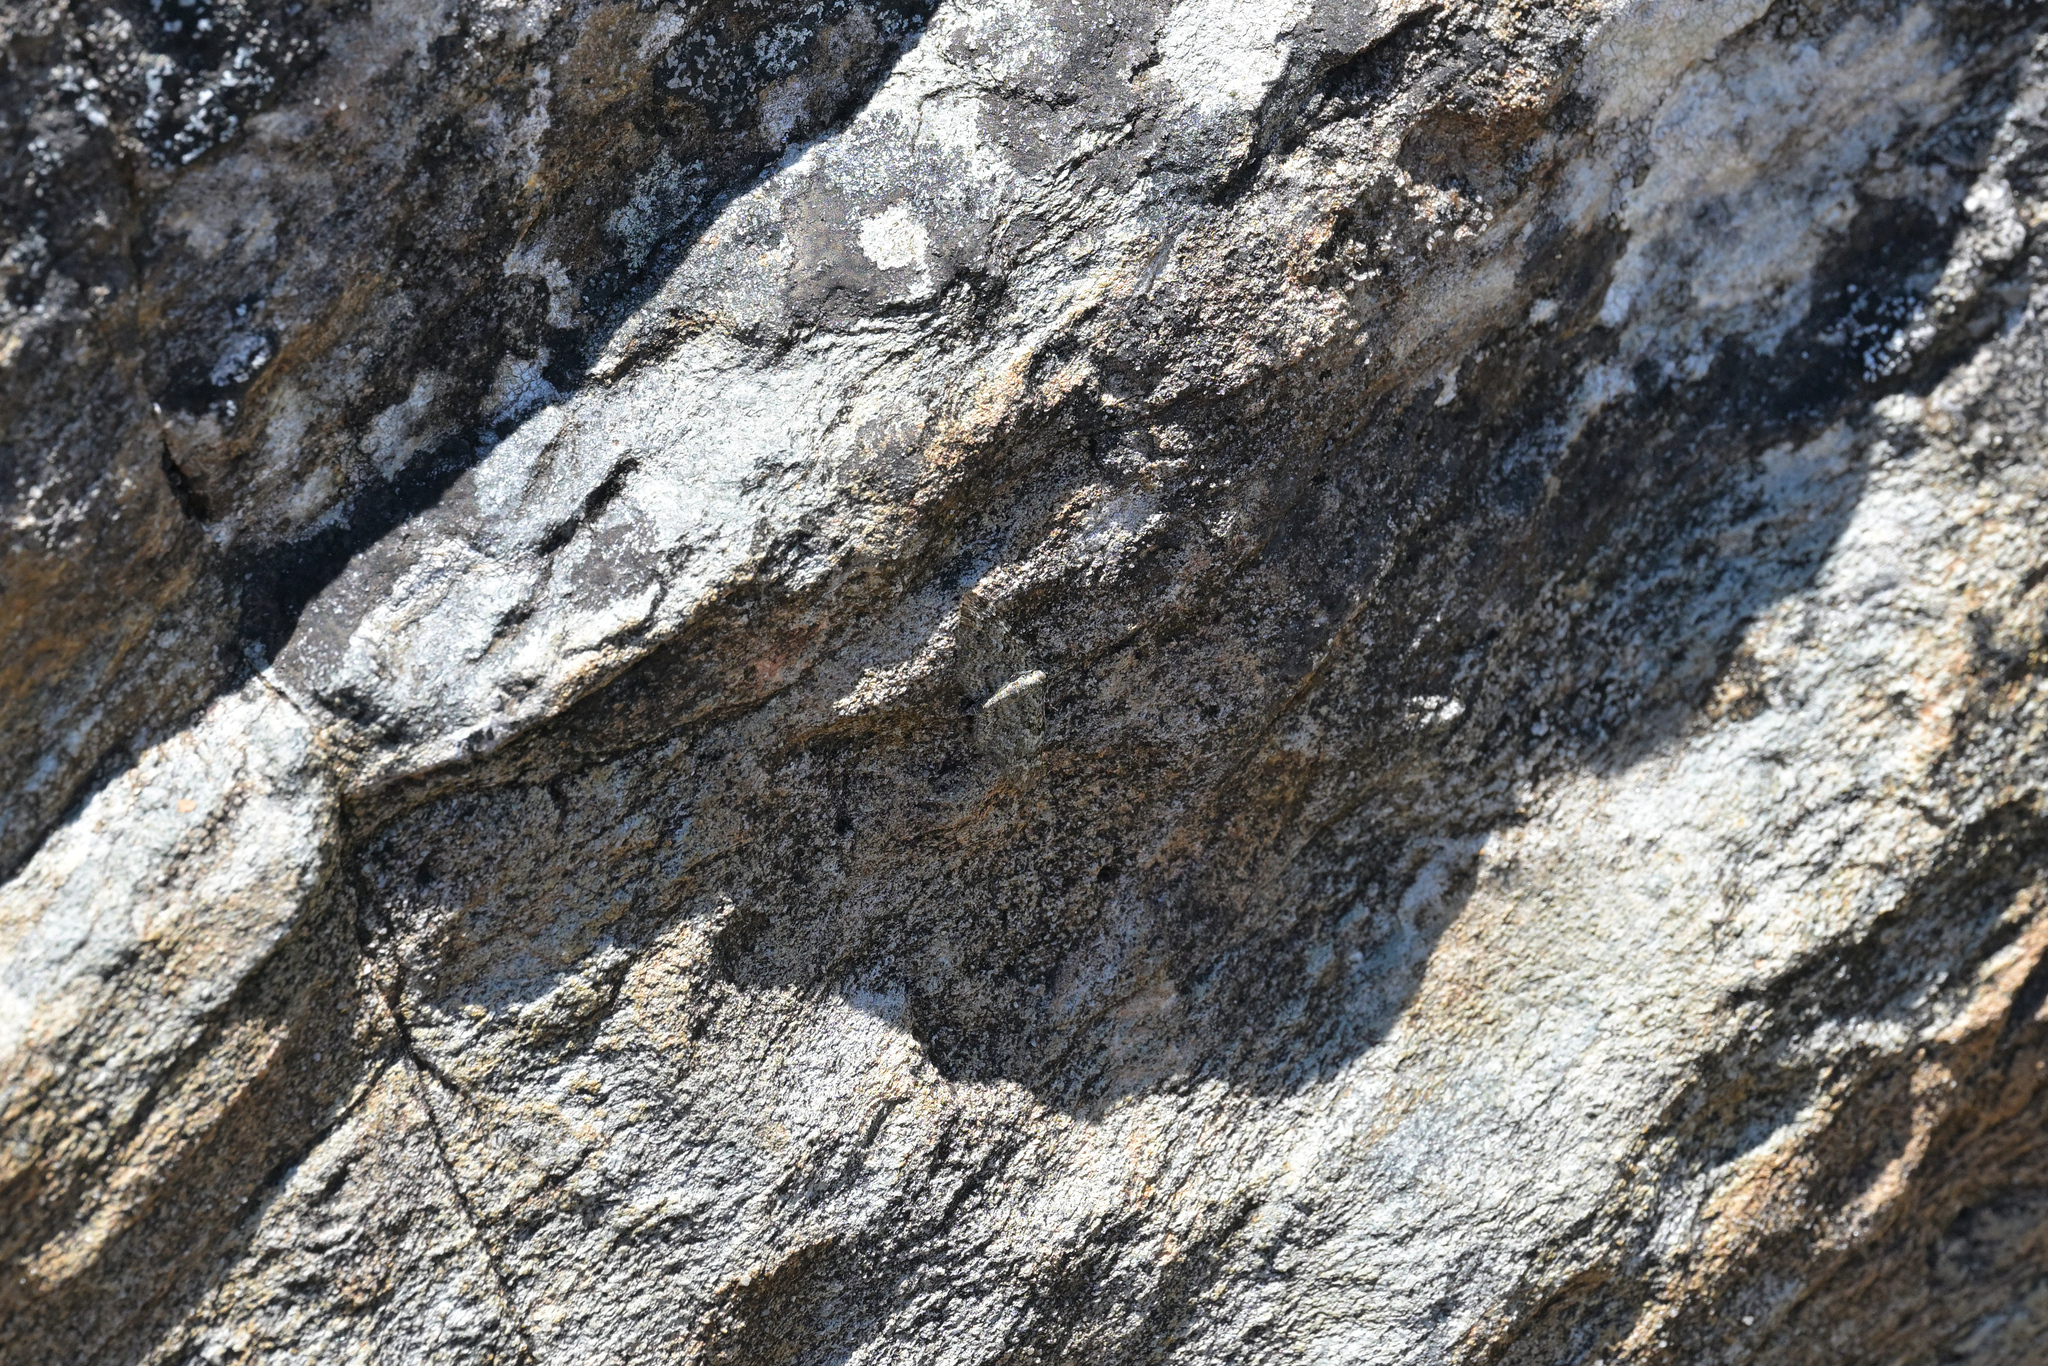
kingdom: Animalia
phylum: Arthropoda
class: Insecta
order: Lepidoptera
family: Geometridae
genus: Chloroclystis
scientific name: Chloroclystis nereis
